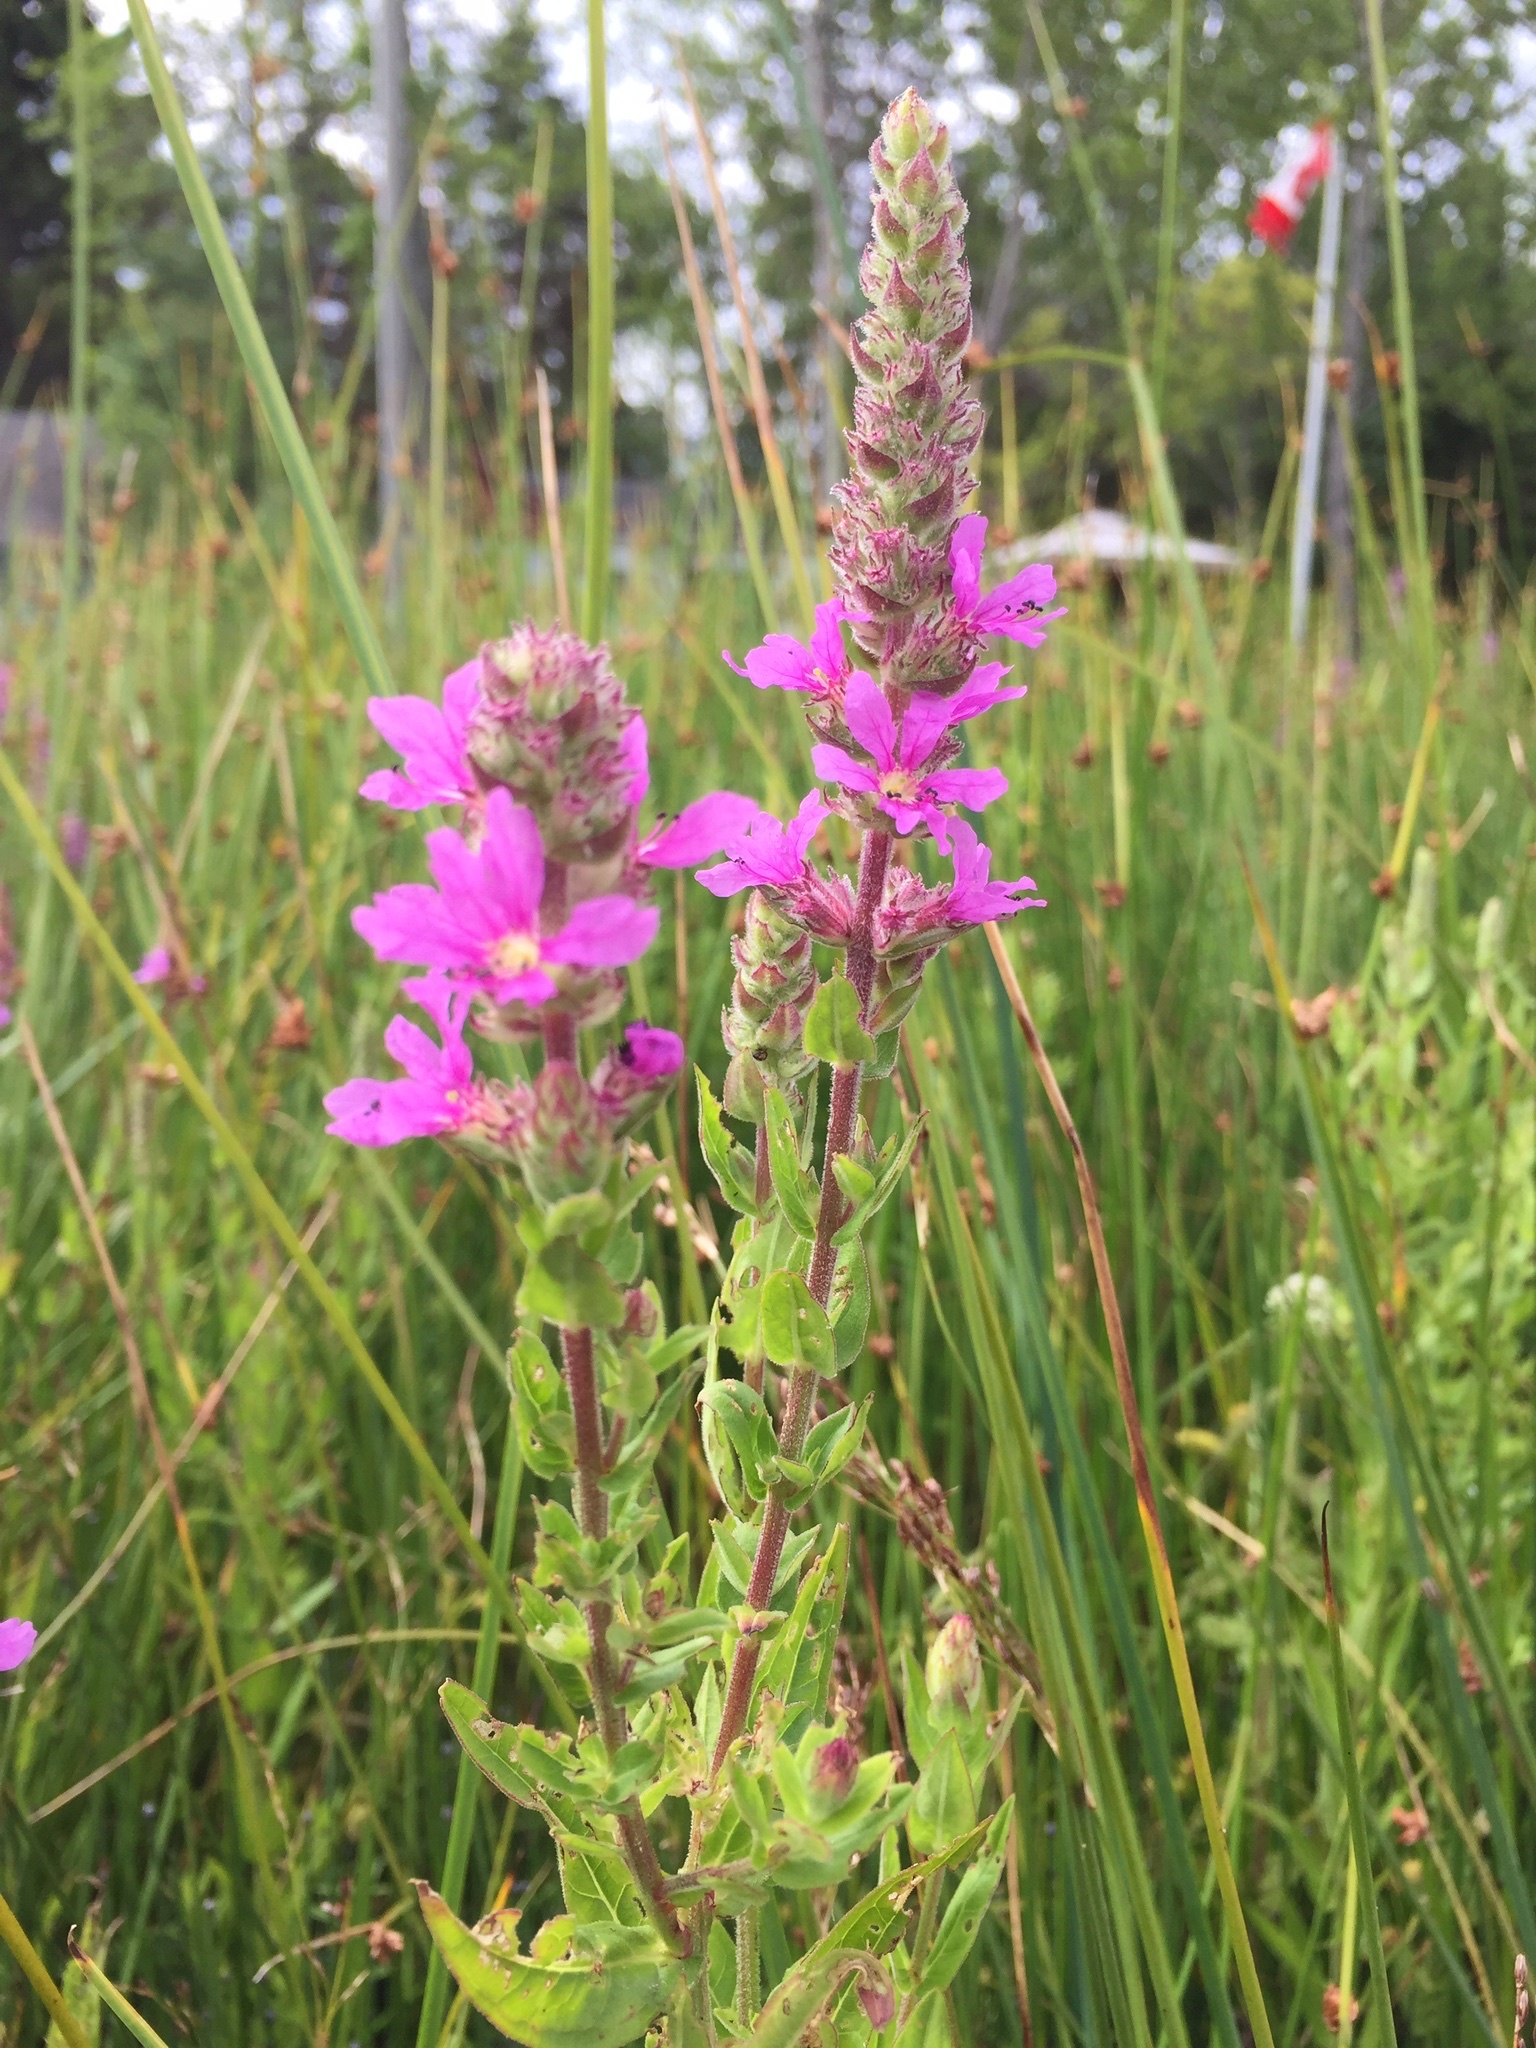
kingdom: Plantae
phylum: Tracheophyta
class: Magnoliopsida
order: Myrtales
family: Lythraceae
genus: Lythrum
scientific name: Lythrum salicaria
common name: Purple loosestrife
